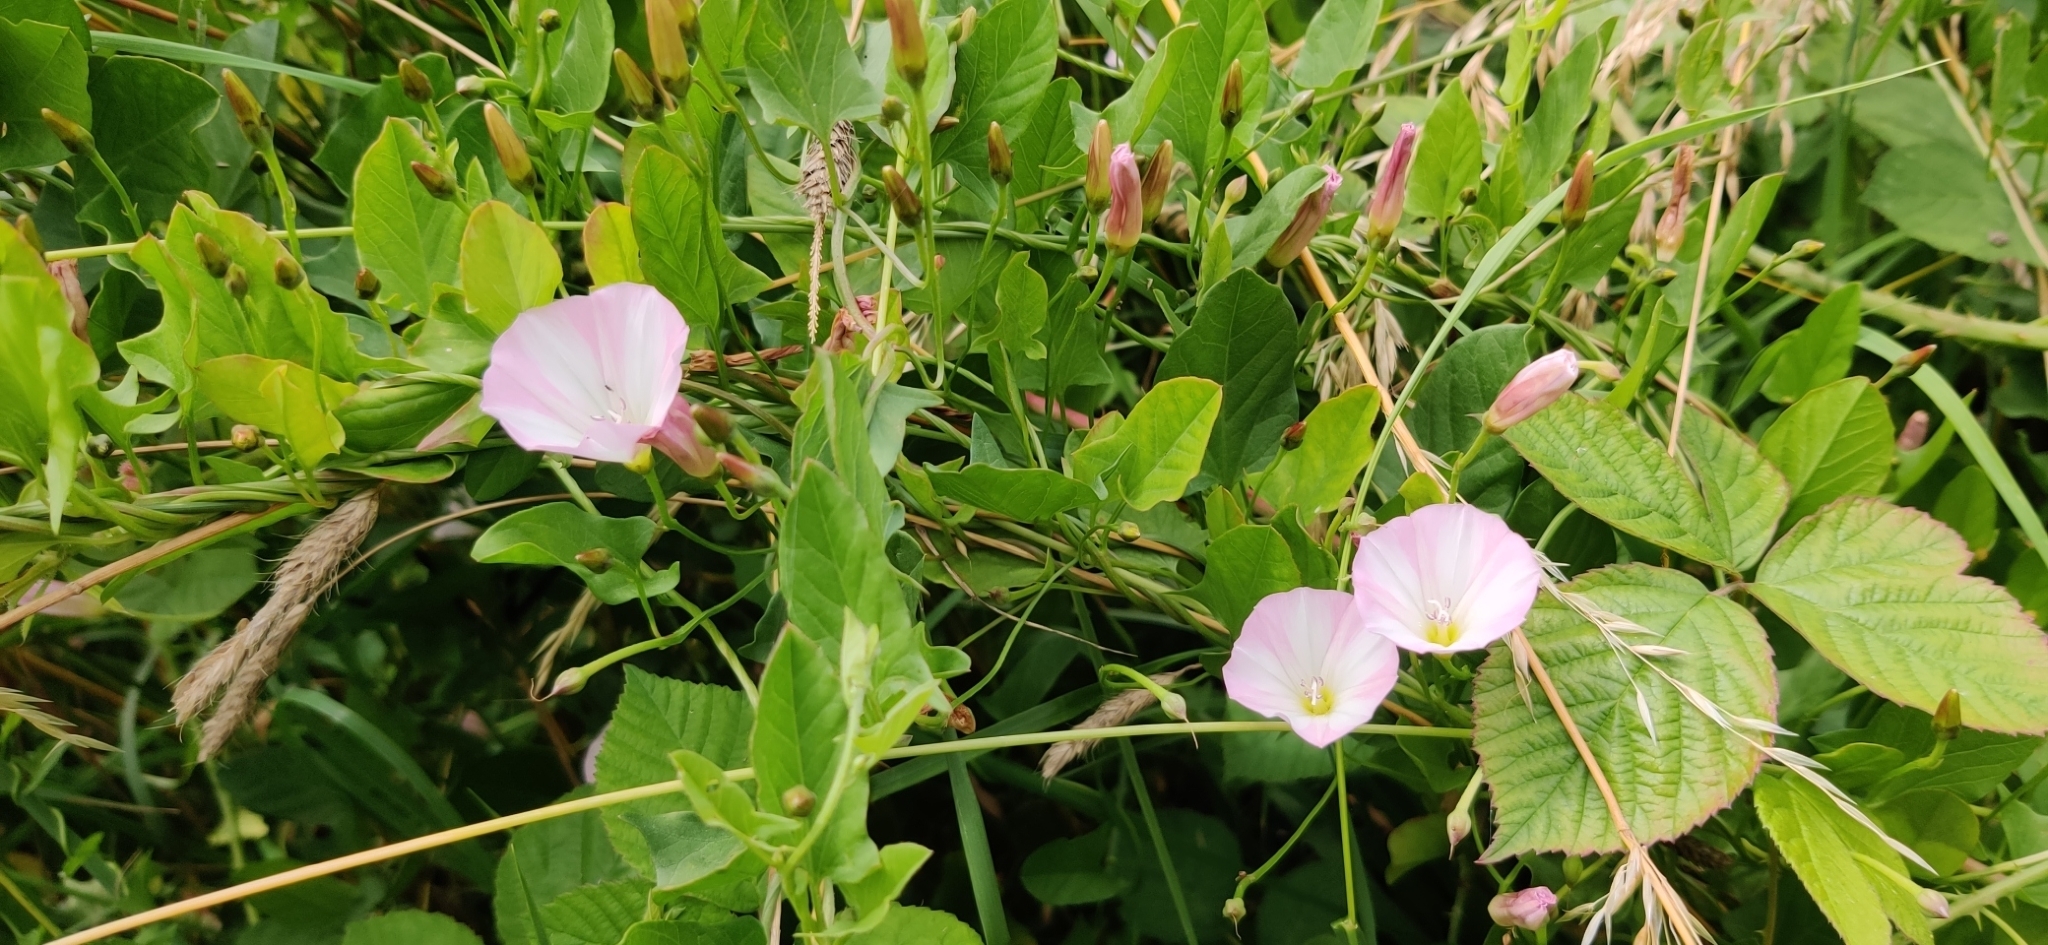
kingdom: Plantae
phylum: Tracheophyta
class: Magnoliopsida
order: Solanales
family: Convolvulaceae
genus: Convolvulus
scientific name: Convolvulus arvensis
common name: Field bindweed
